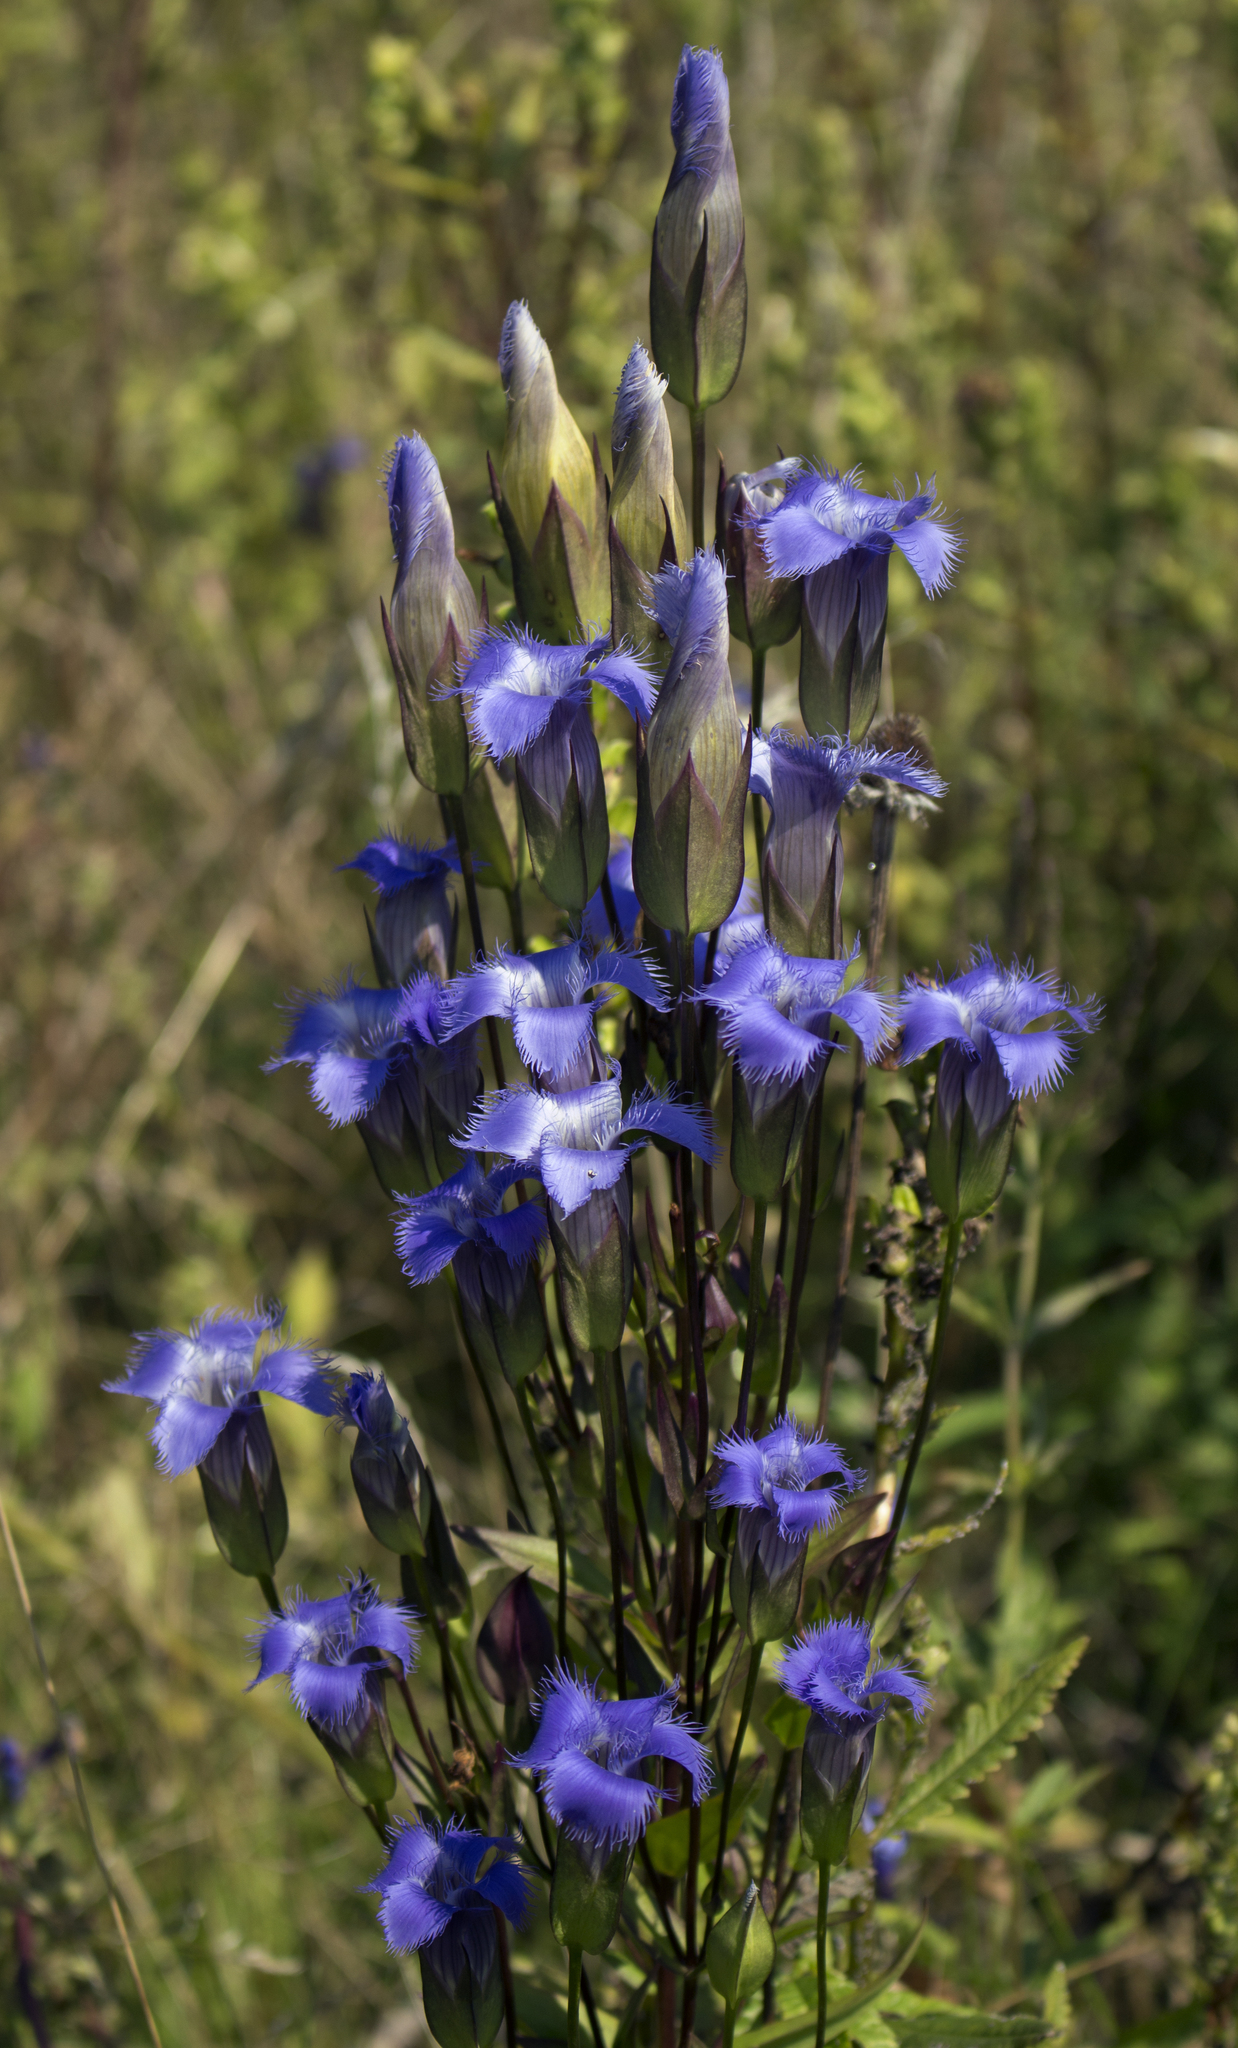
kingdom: Plantae
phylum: Tracheophyta
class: Magnoliopsida
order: Gentianales
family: Gentianaceae
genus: Gentianopsis
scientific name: Gentianopsis crinita
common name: Fringed-gentian
